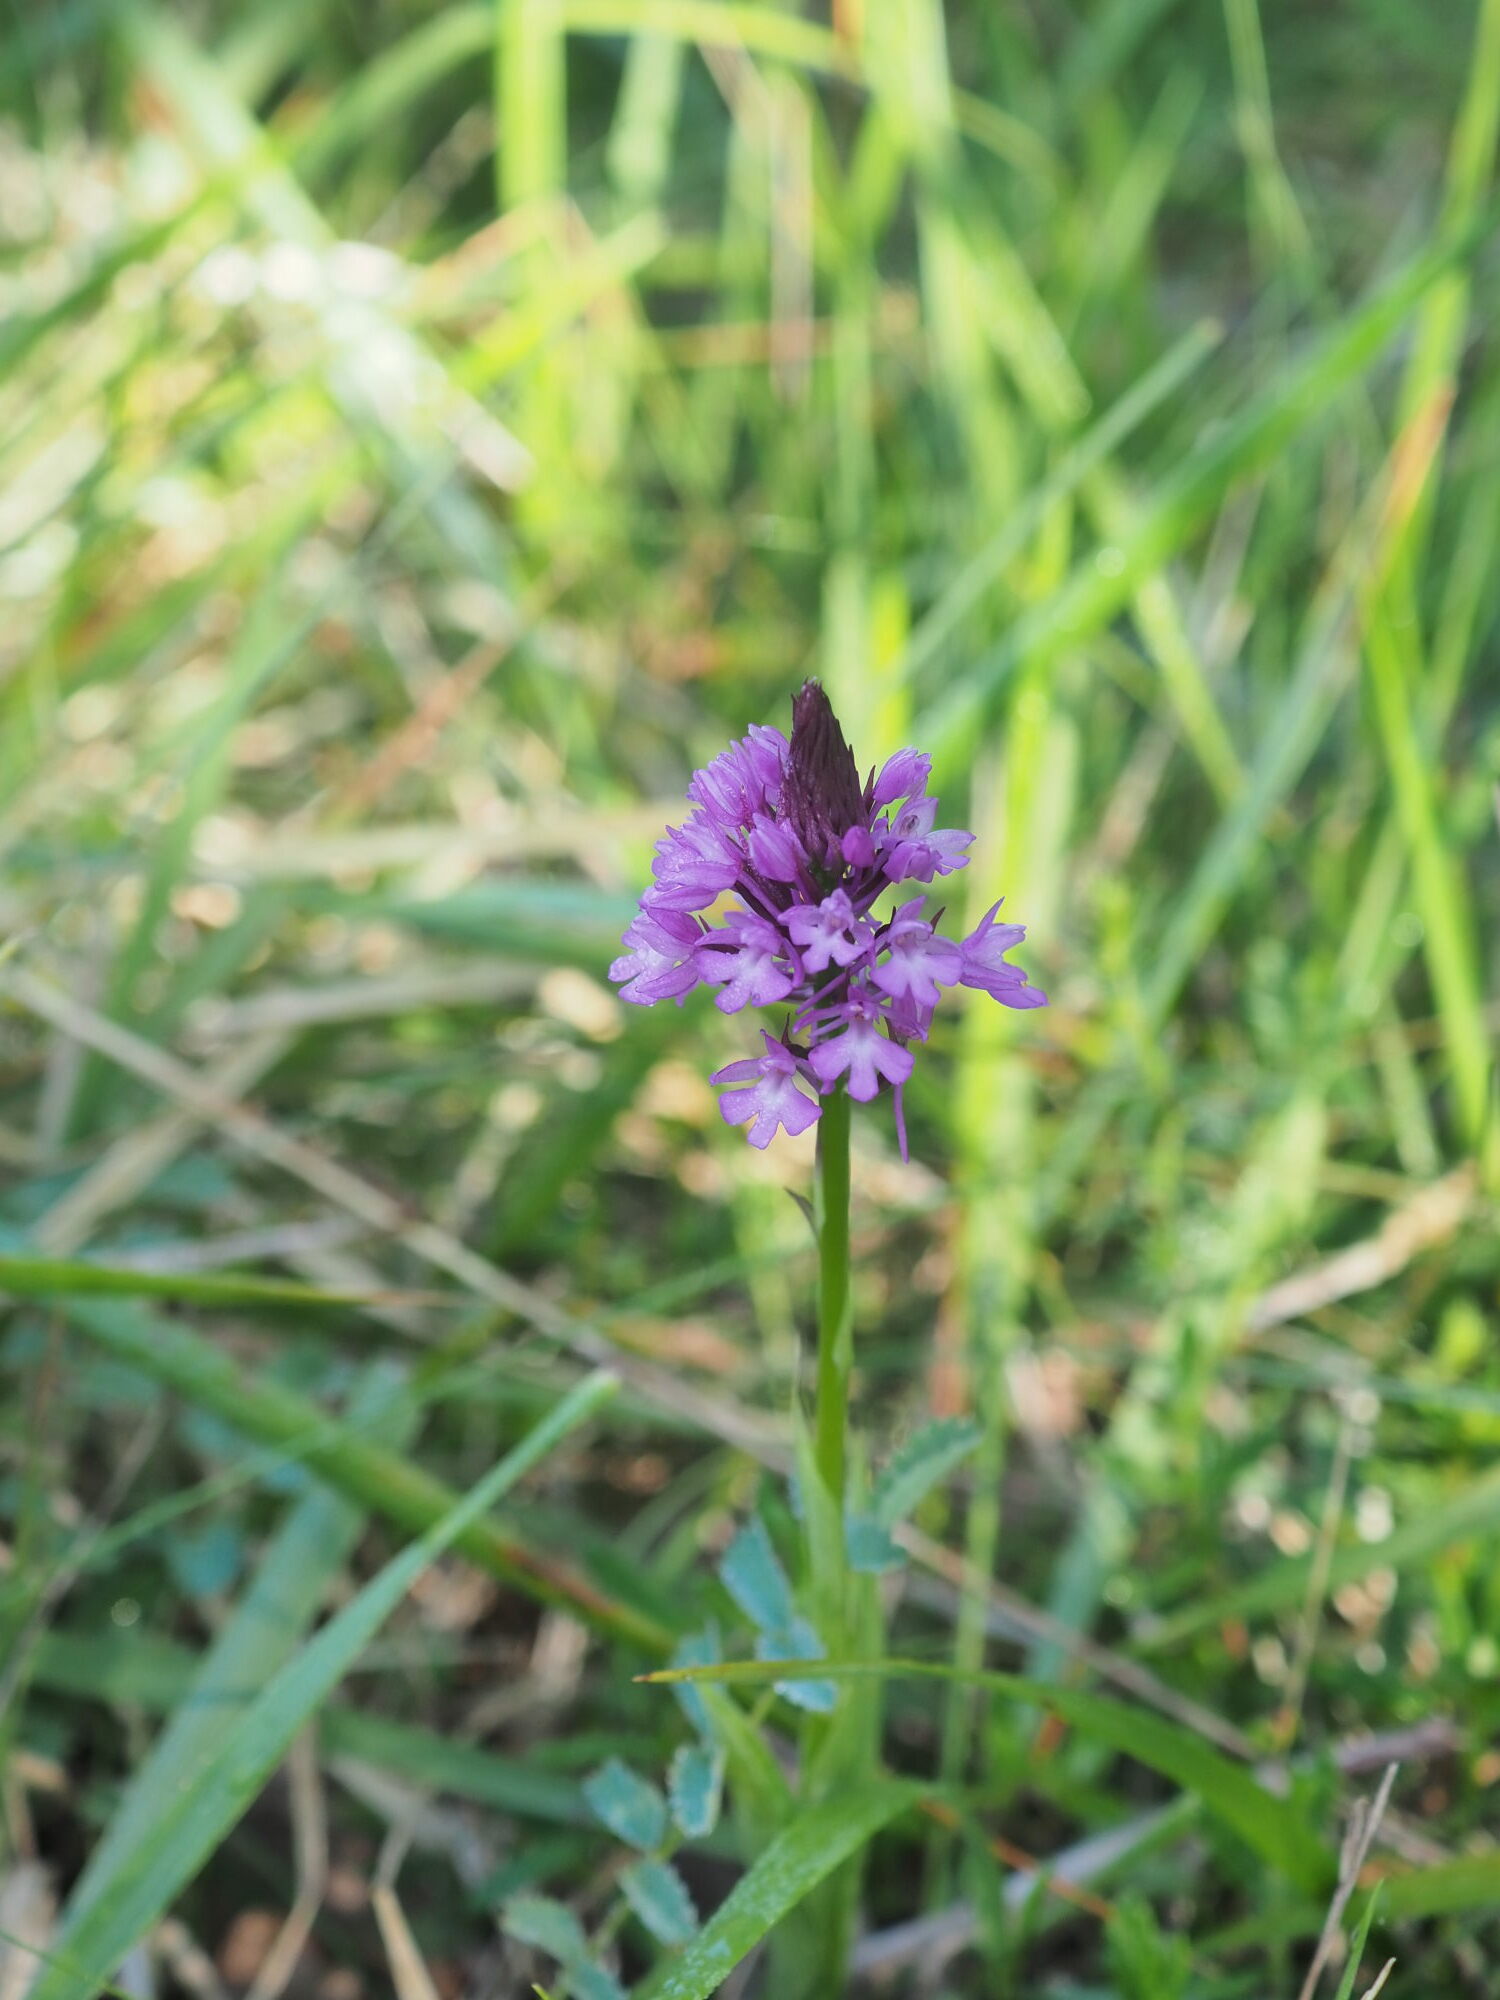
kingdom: Plantae
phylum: Tracheophyta
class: Liliopsida
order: Asparagales
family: Orchidaceae
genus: Anacamptis
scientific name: Anacamptis pyramidalis
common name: Pyramidal orchid
